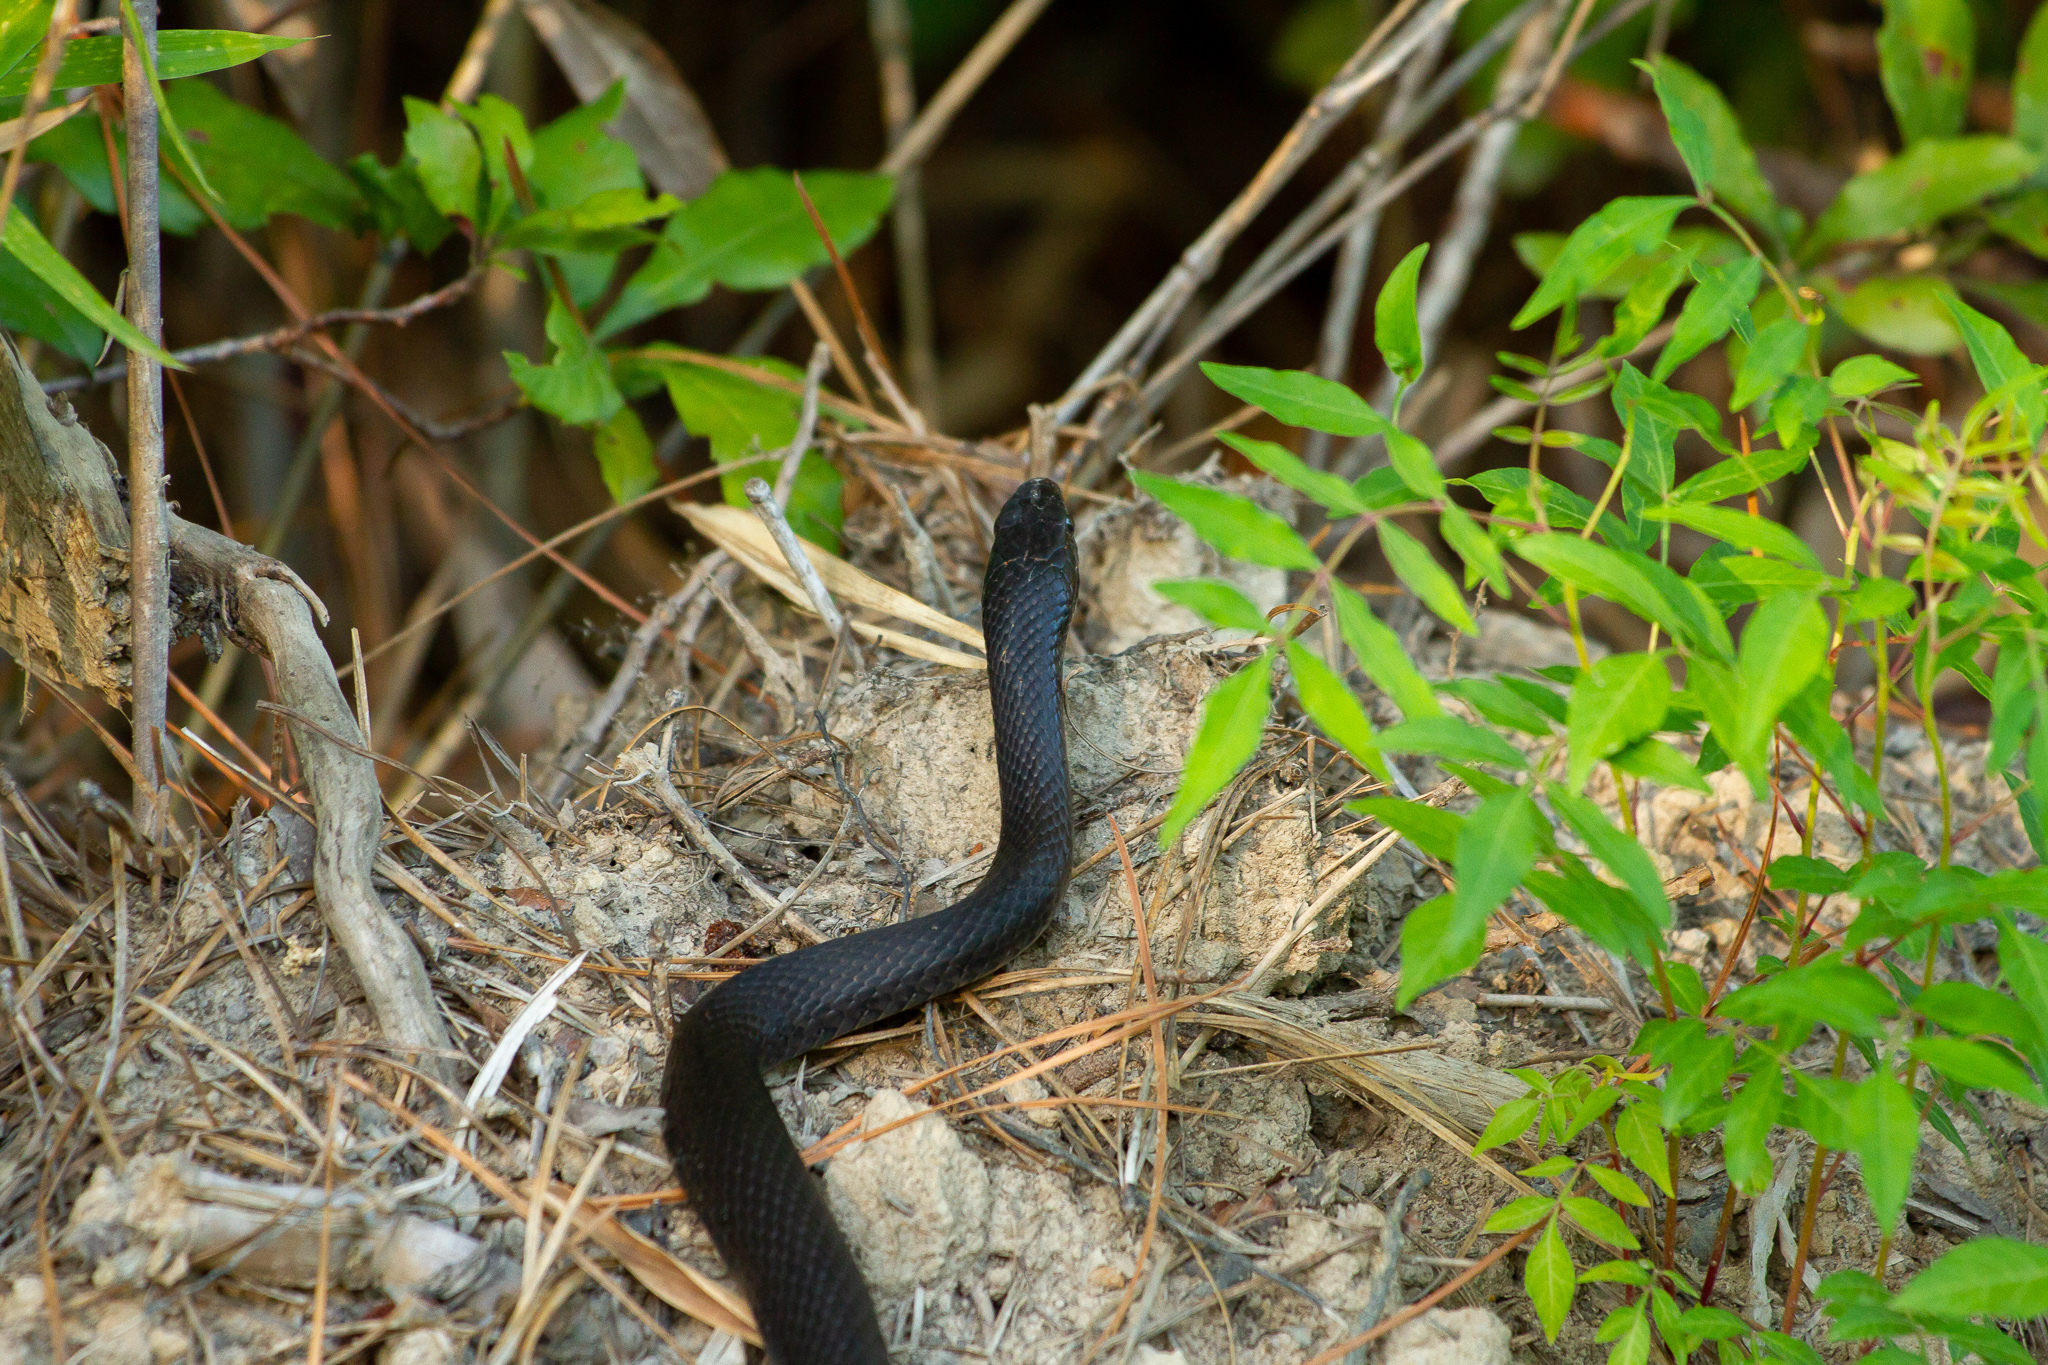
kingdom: Animalia
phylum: Chordata
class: Squamata
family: Colubridae
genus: Coluber
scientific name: Coluber constrictor
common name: Eastern racer
